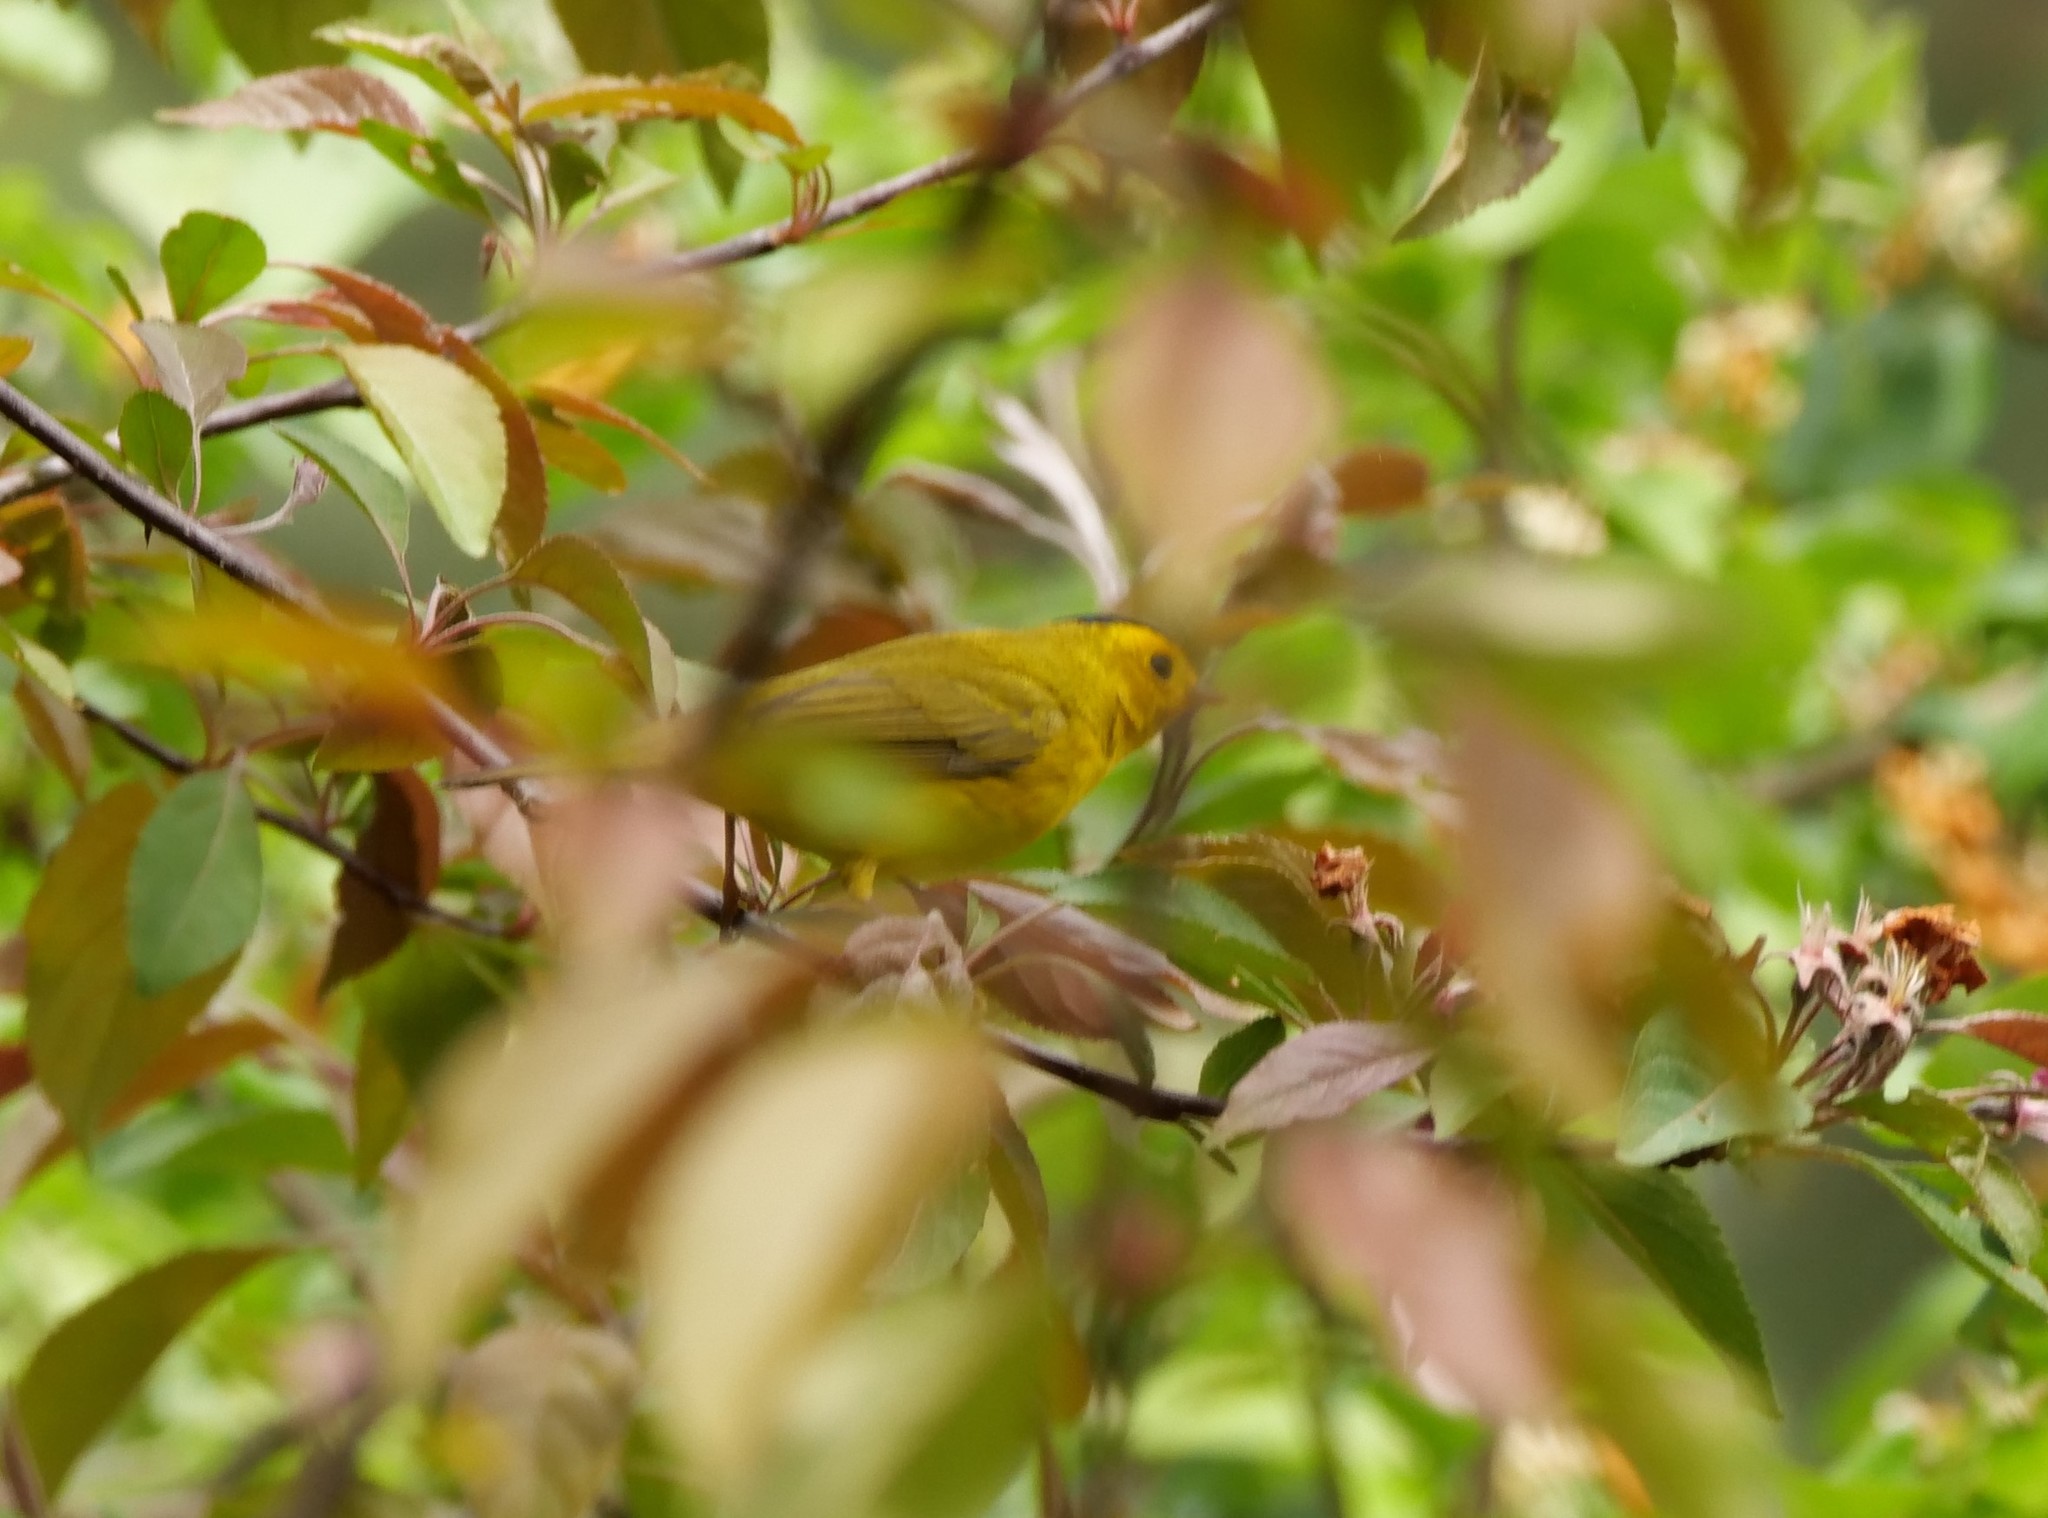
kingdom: Animalia
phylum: Chordata
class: Aves
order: Passeriformes
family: Parulidae
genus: Cardellina
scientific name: Cardellina pusilla
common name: Wilson's warbler
